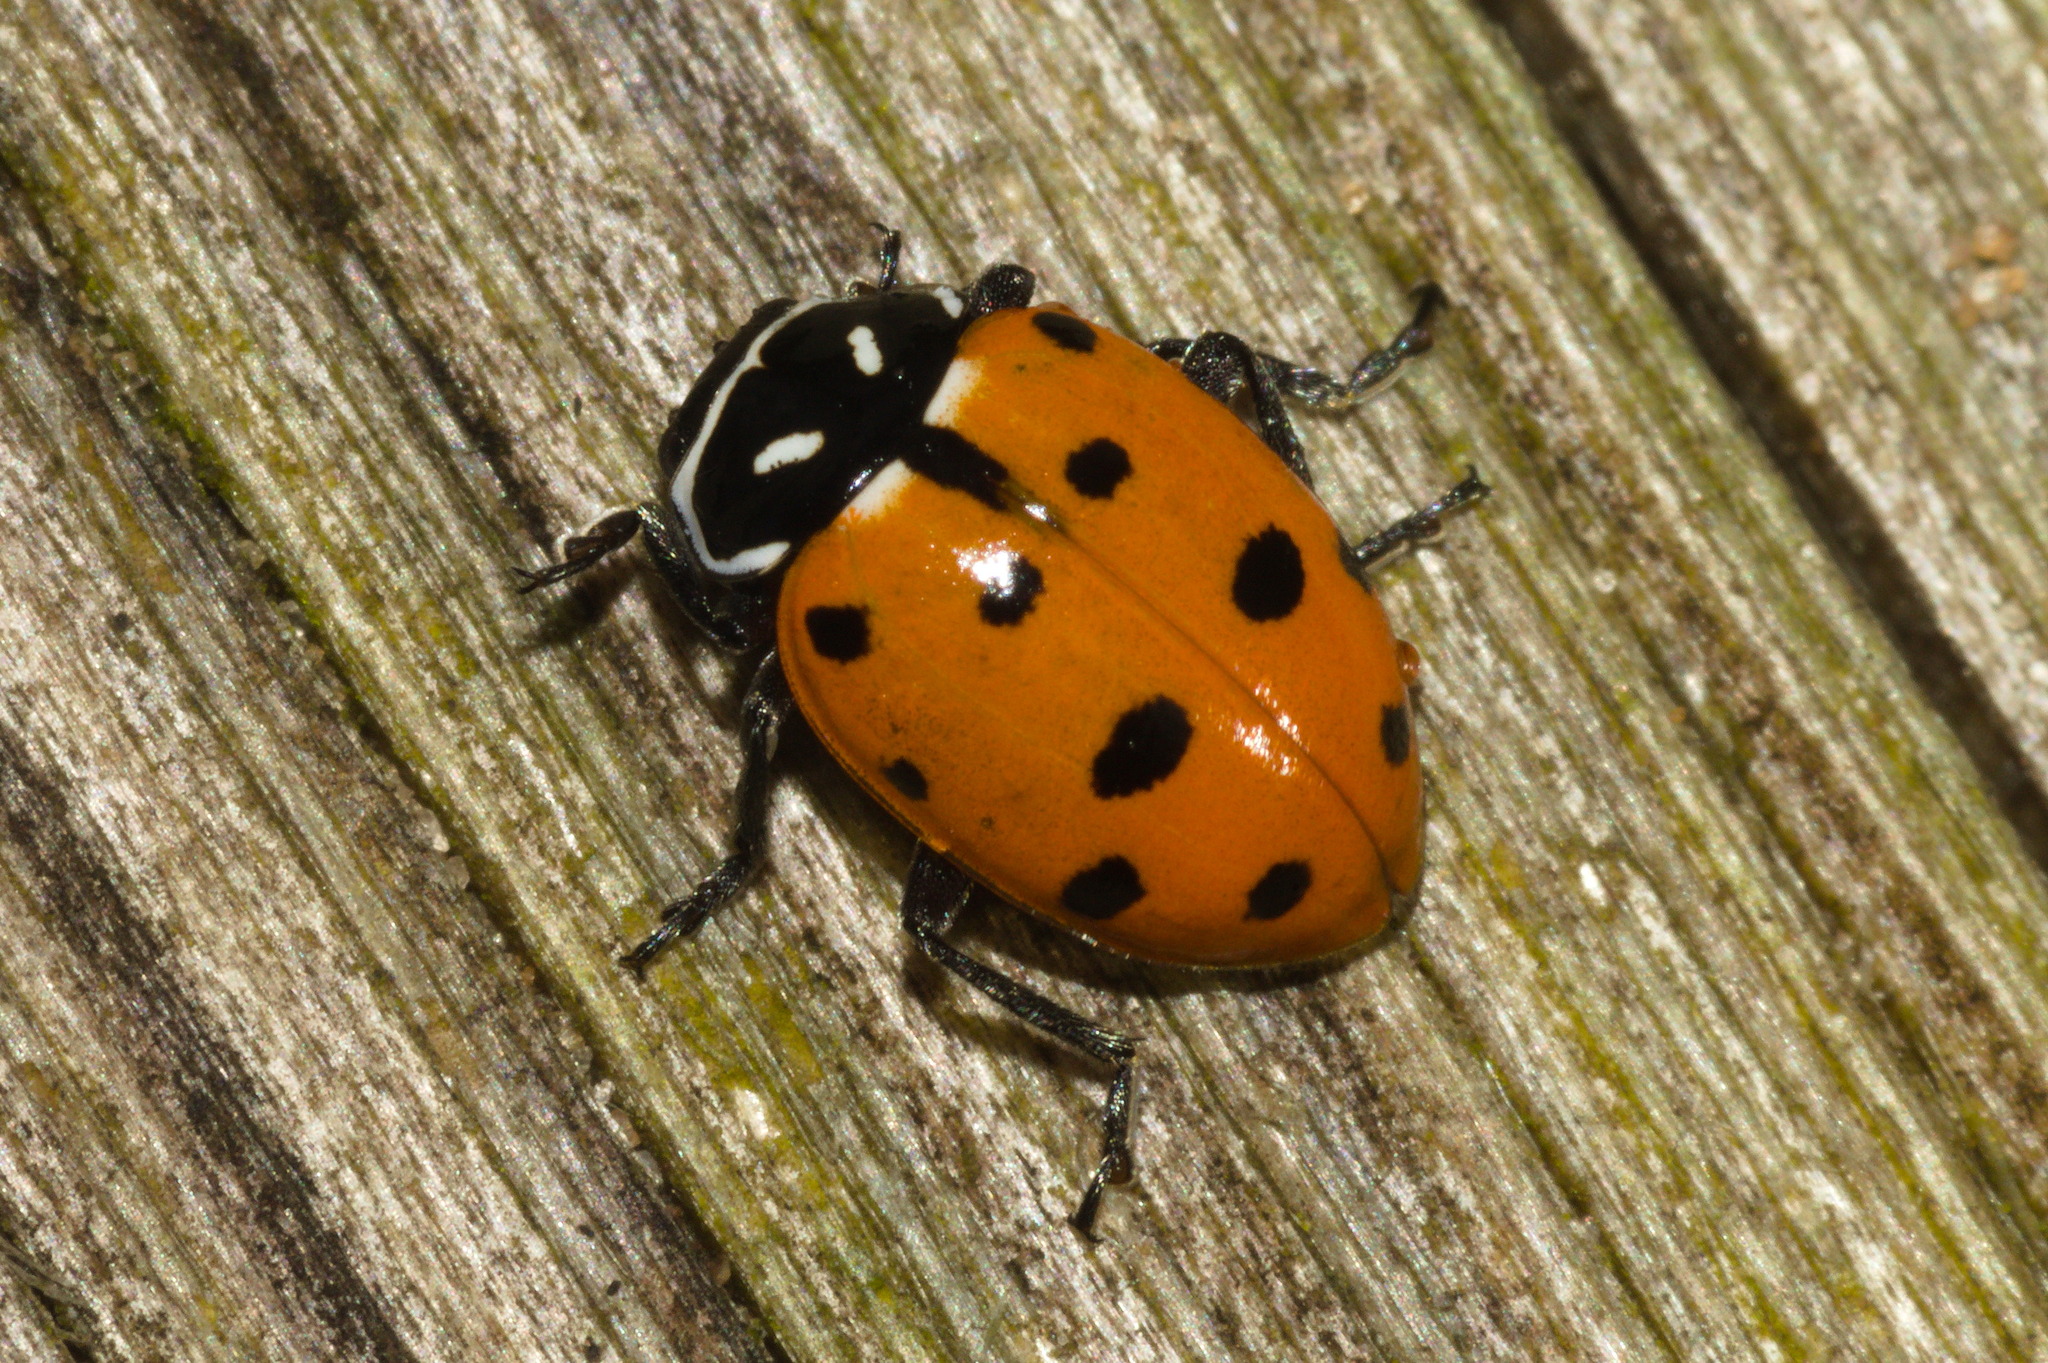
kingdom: Animalia
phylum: Arthropoda
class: Insecta
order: Coleoptera
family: Coccinellidae
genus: Hippodamia
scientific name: Hippodamia convergens
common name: Convergent lady beetle
